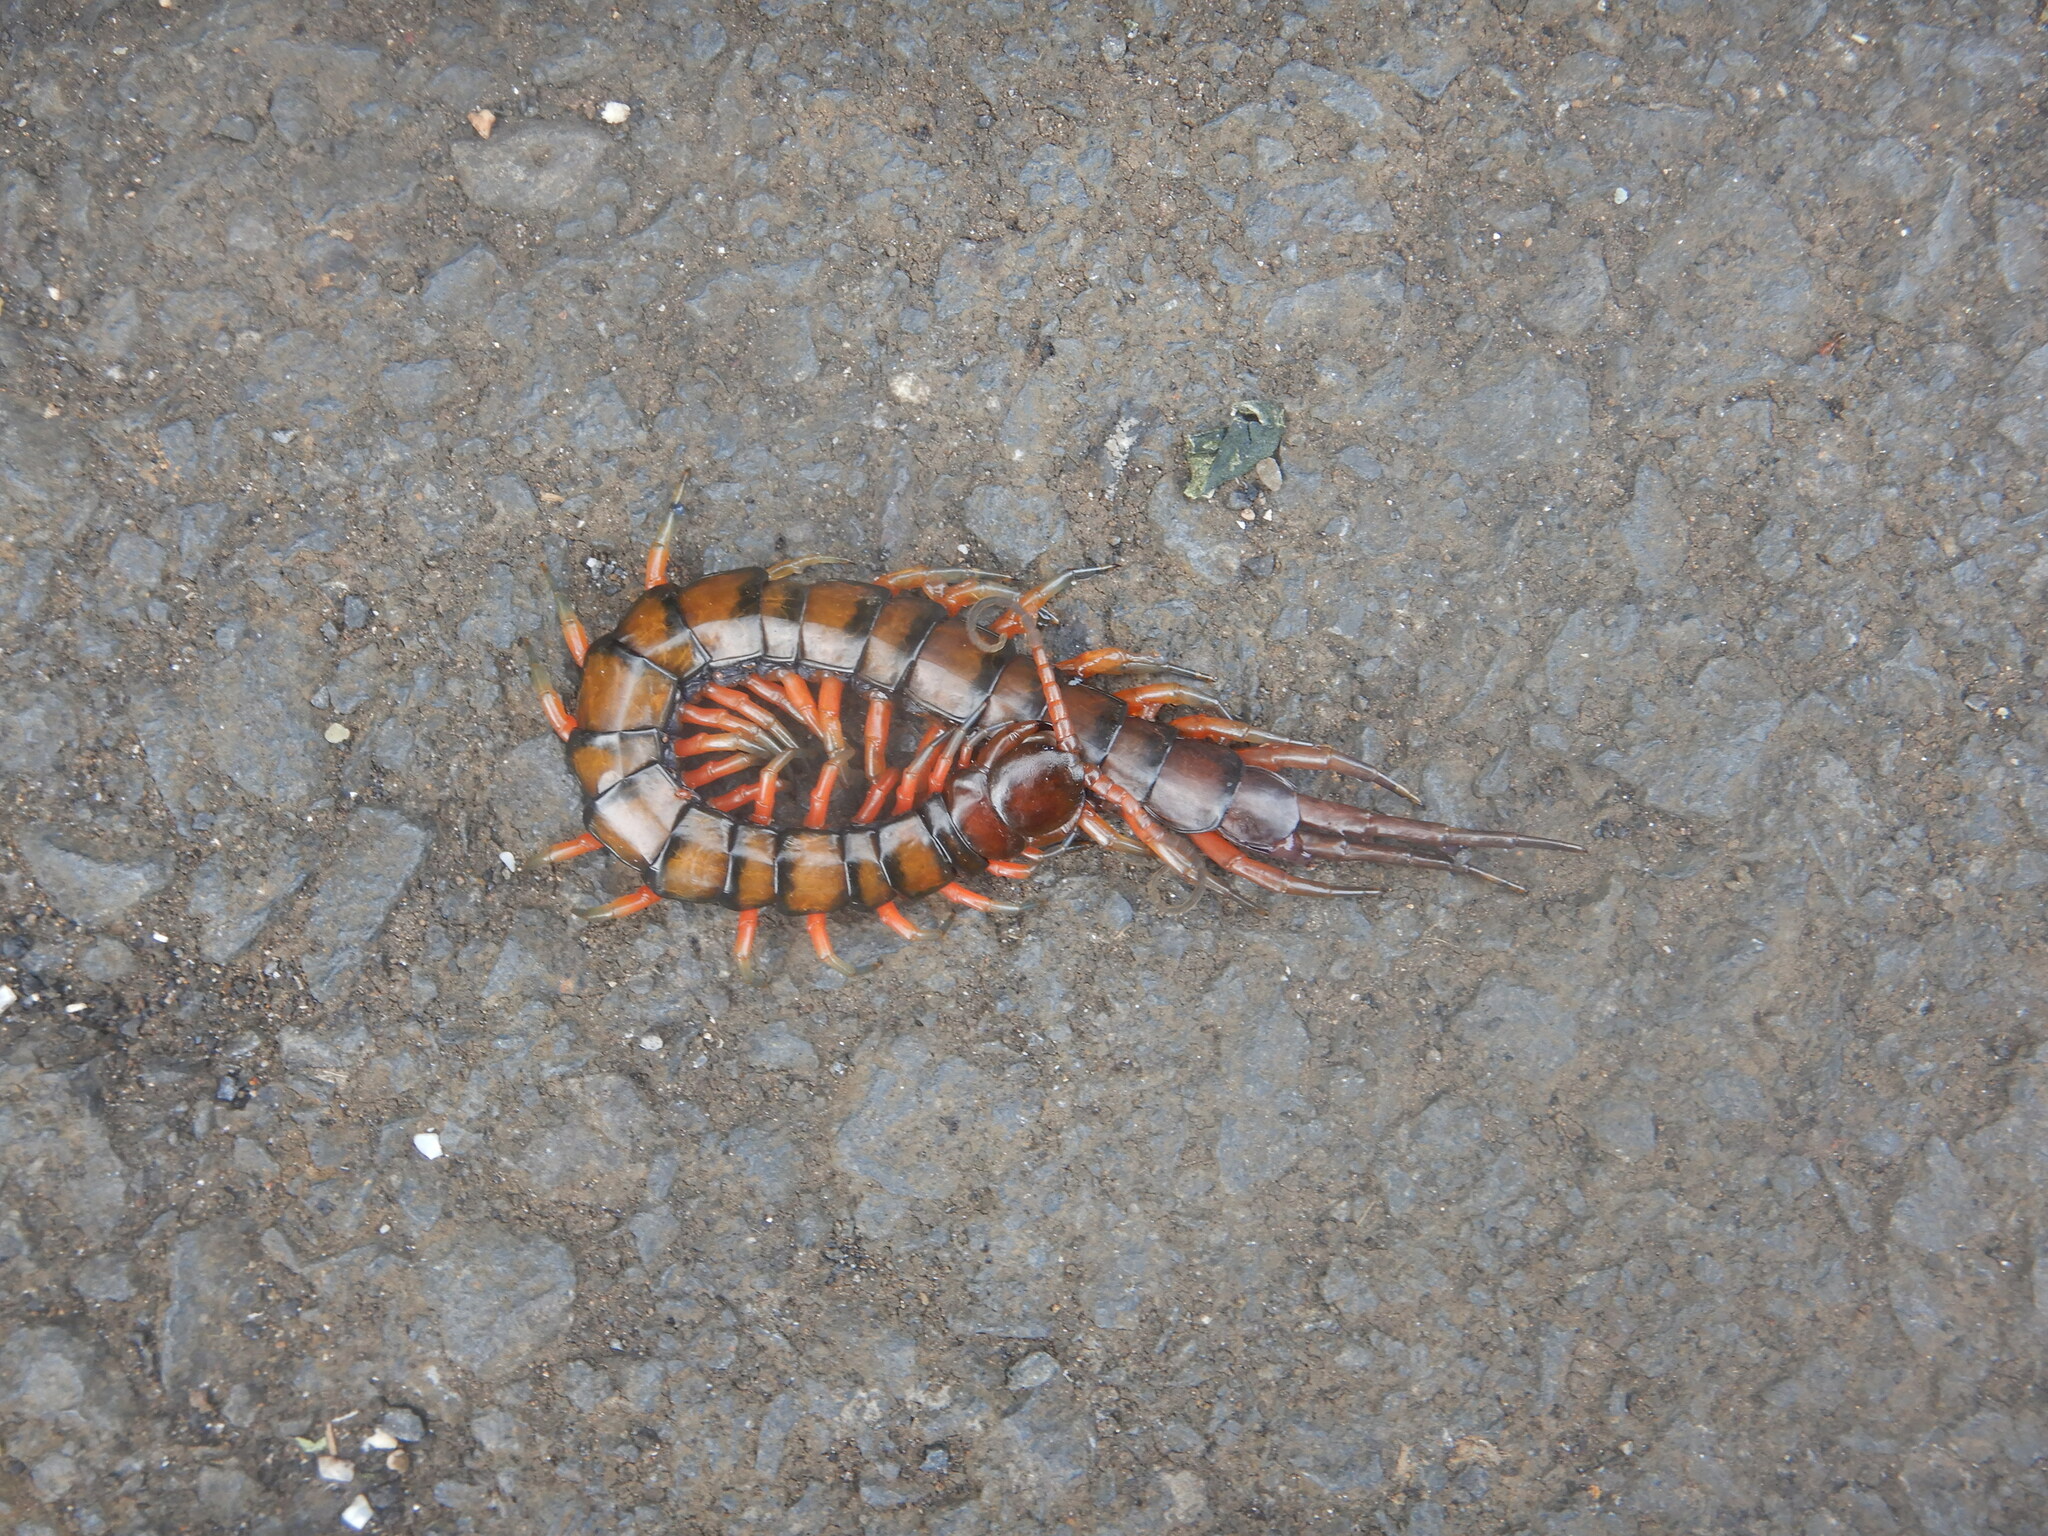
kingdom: Animalia
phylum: Arthropoda
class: Chilopoda
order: Scolopendromorpha
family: Scolopendridae
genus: Scolopendra
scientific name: Scolopendra subspinipes
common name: Centipede
